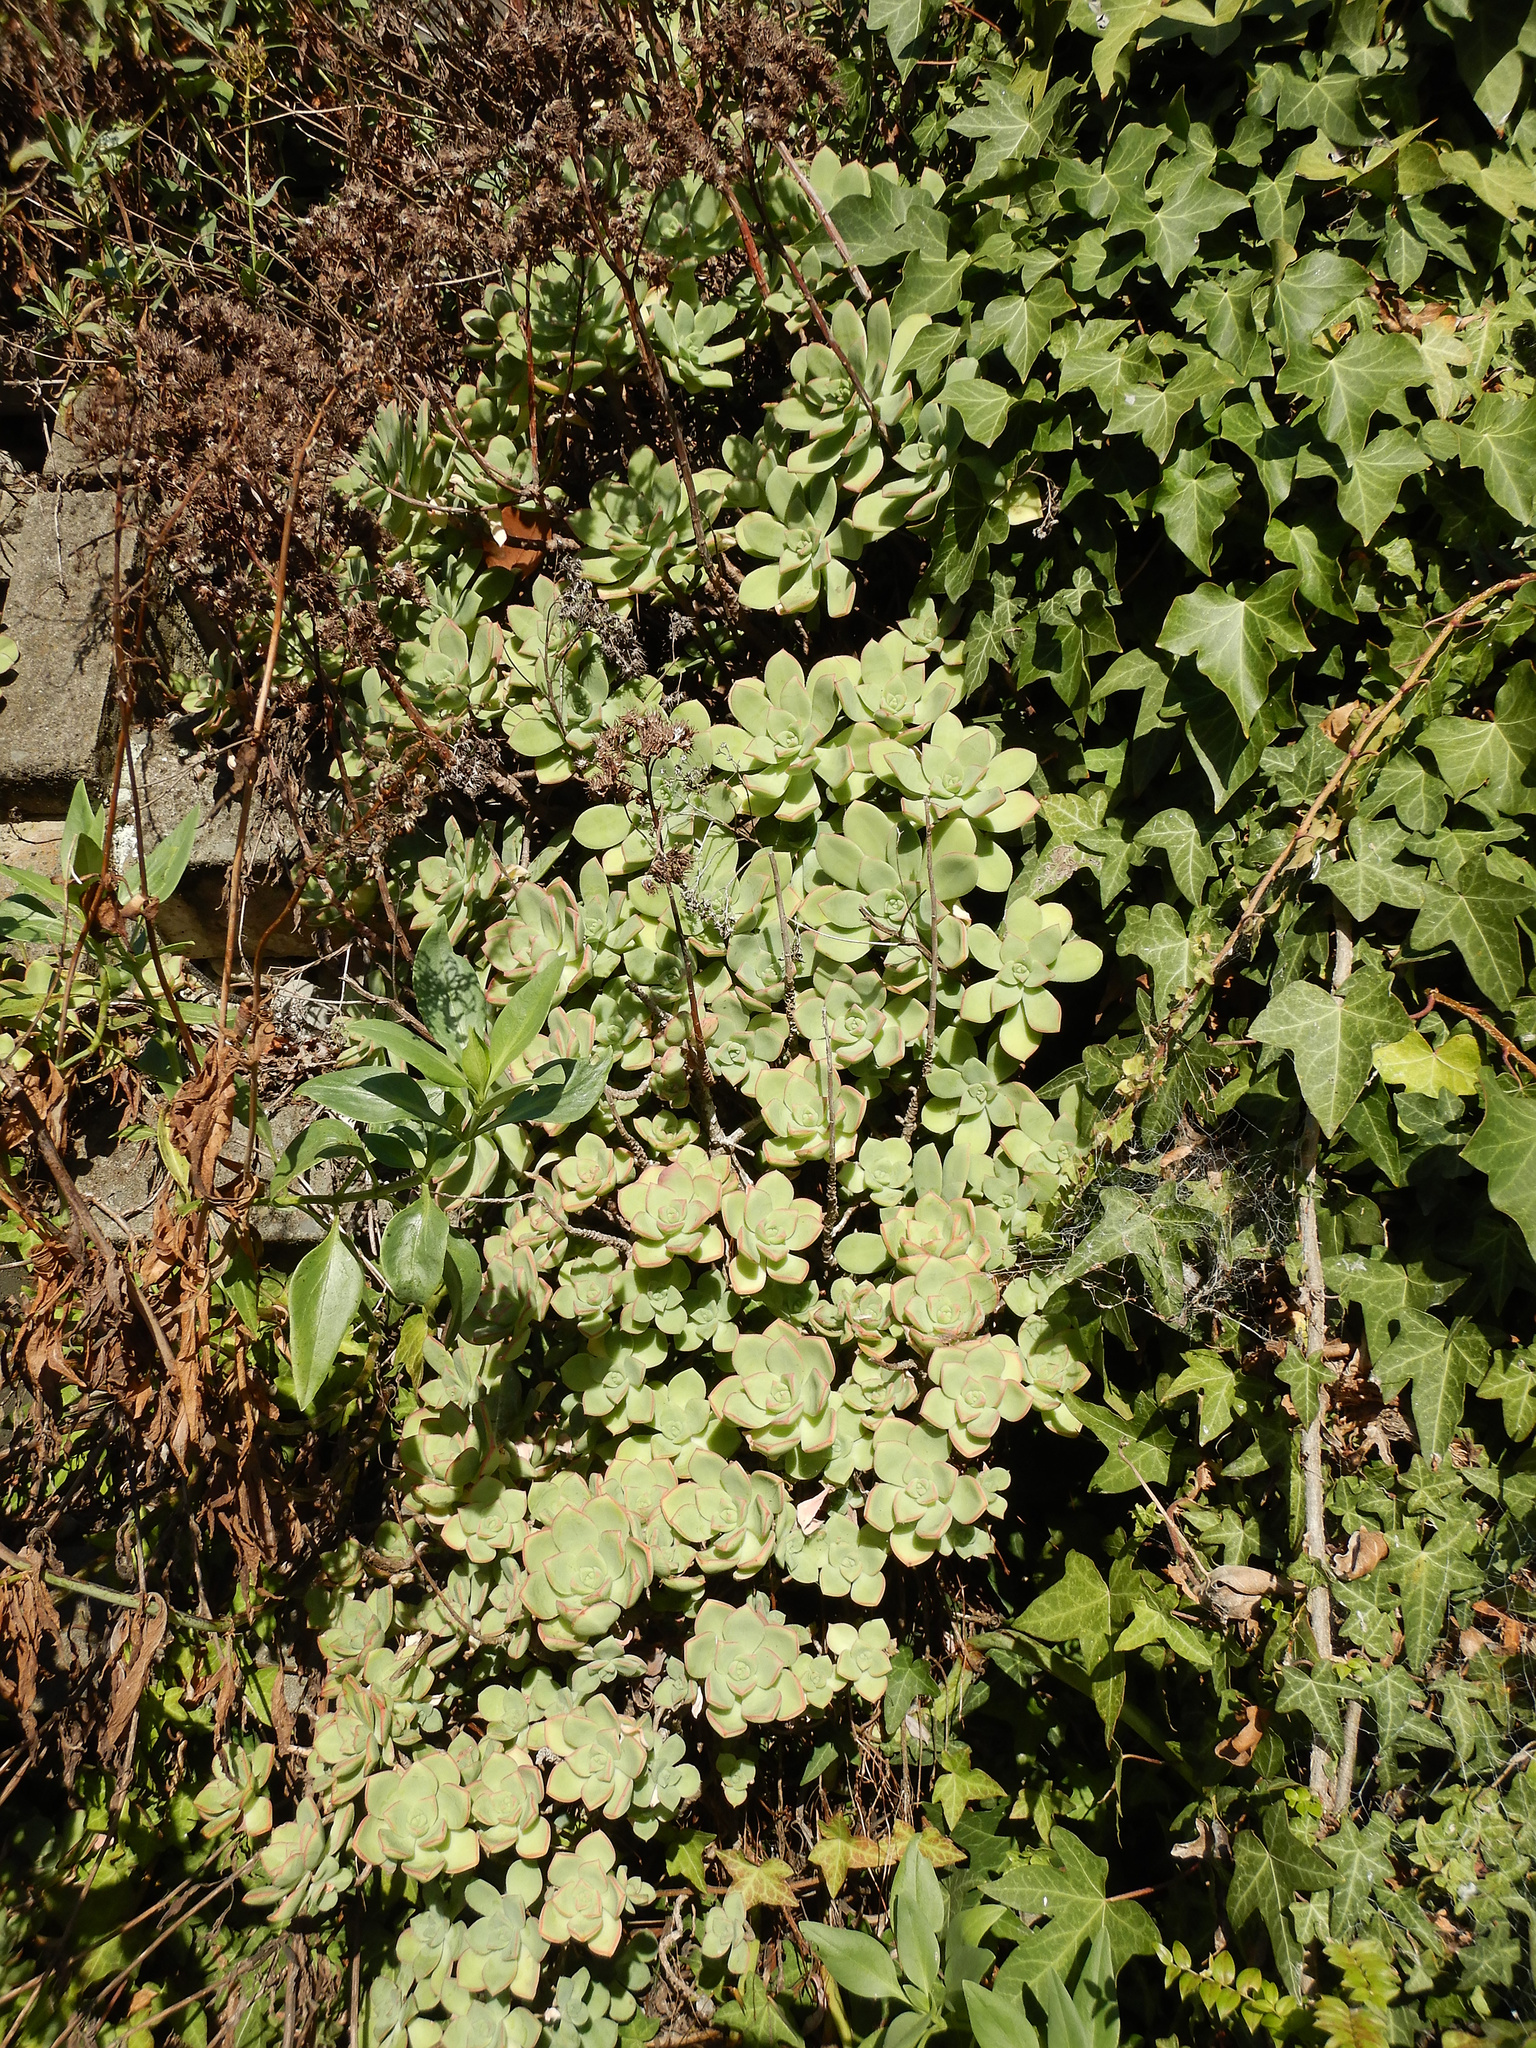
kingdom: Plantae
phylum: Tracheophyta
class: Magnoliopsida
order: Saxifragales
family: Crassulaceae
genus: Aeonium
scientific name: Aeonium haworthii
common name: Haworth's aeonium
